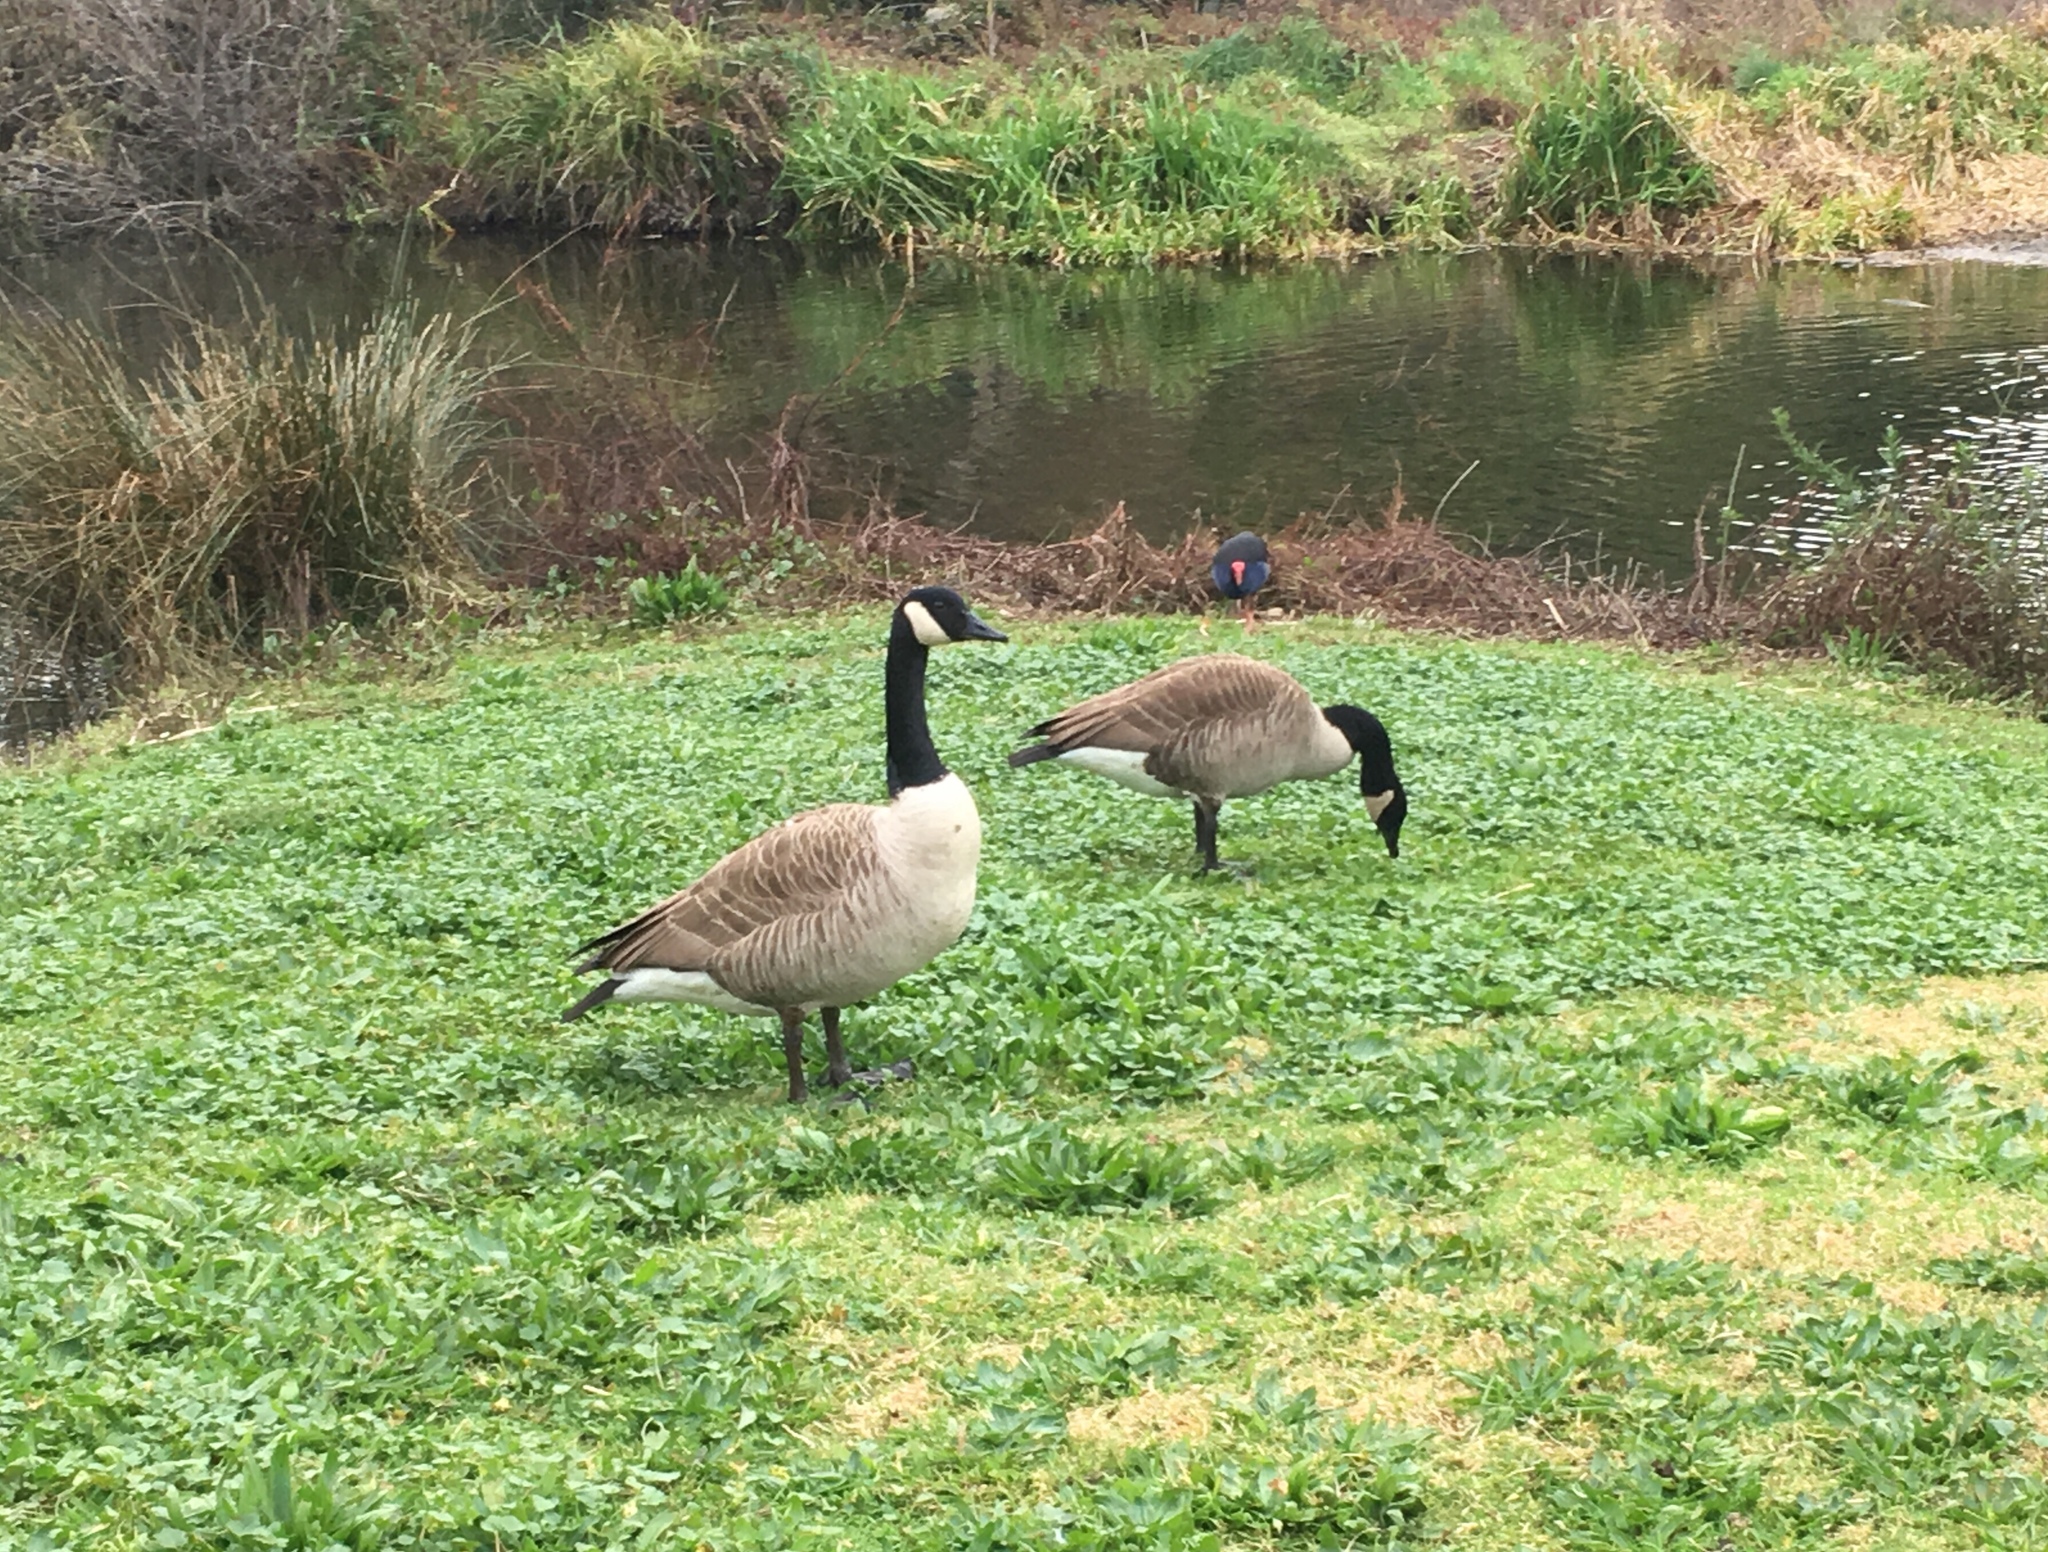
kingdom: Animalia
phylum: Chordata
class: Aves
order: Anseriformes
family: Anatidae
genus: Branta
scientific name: Branta canadensis
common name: Canada goose
